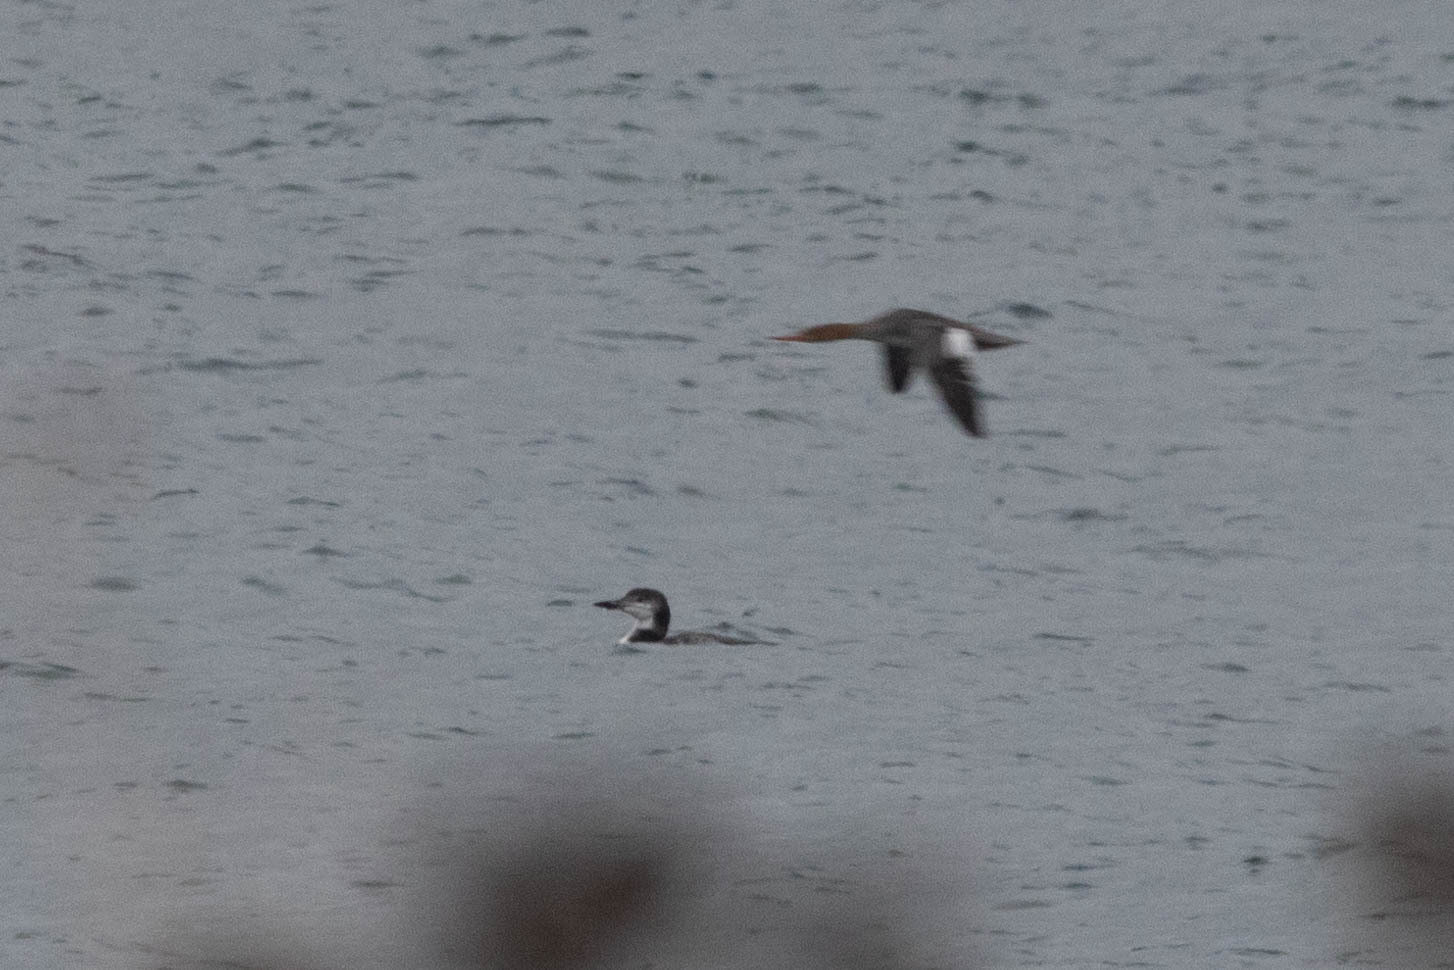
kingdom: Animalia
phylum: Chordata
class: Aves
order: Gaviiformes
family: Gaviidae
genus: Gavia
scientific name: Gavia immer
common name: Common loon
